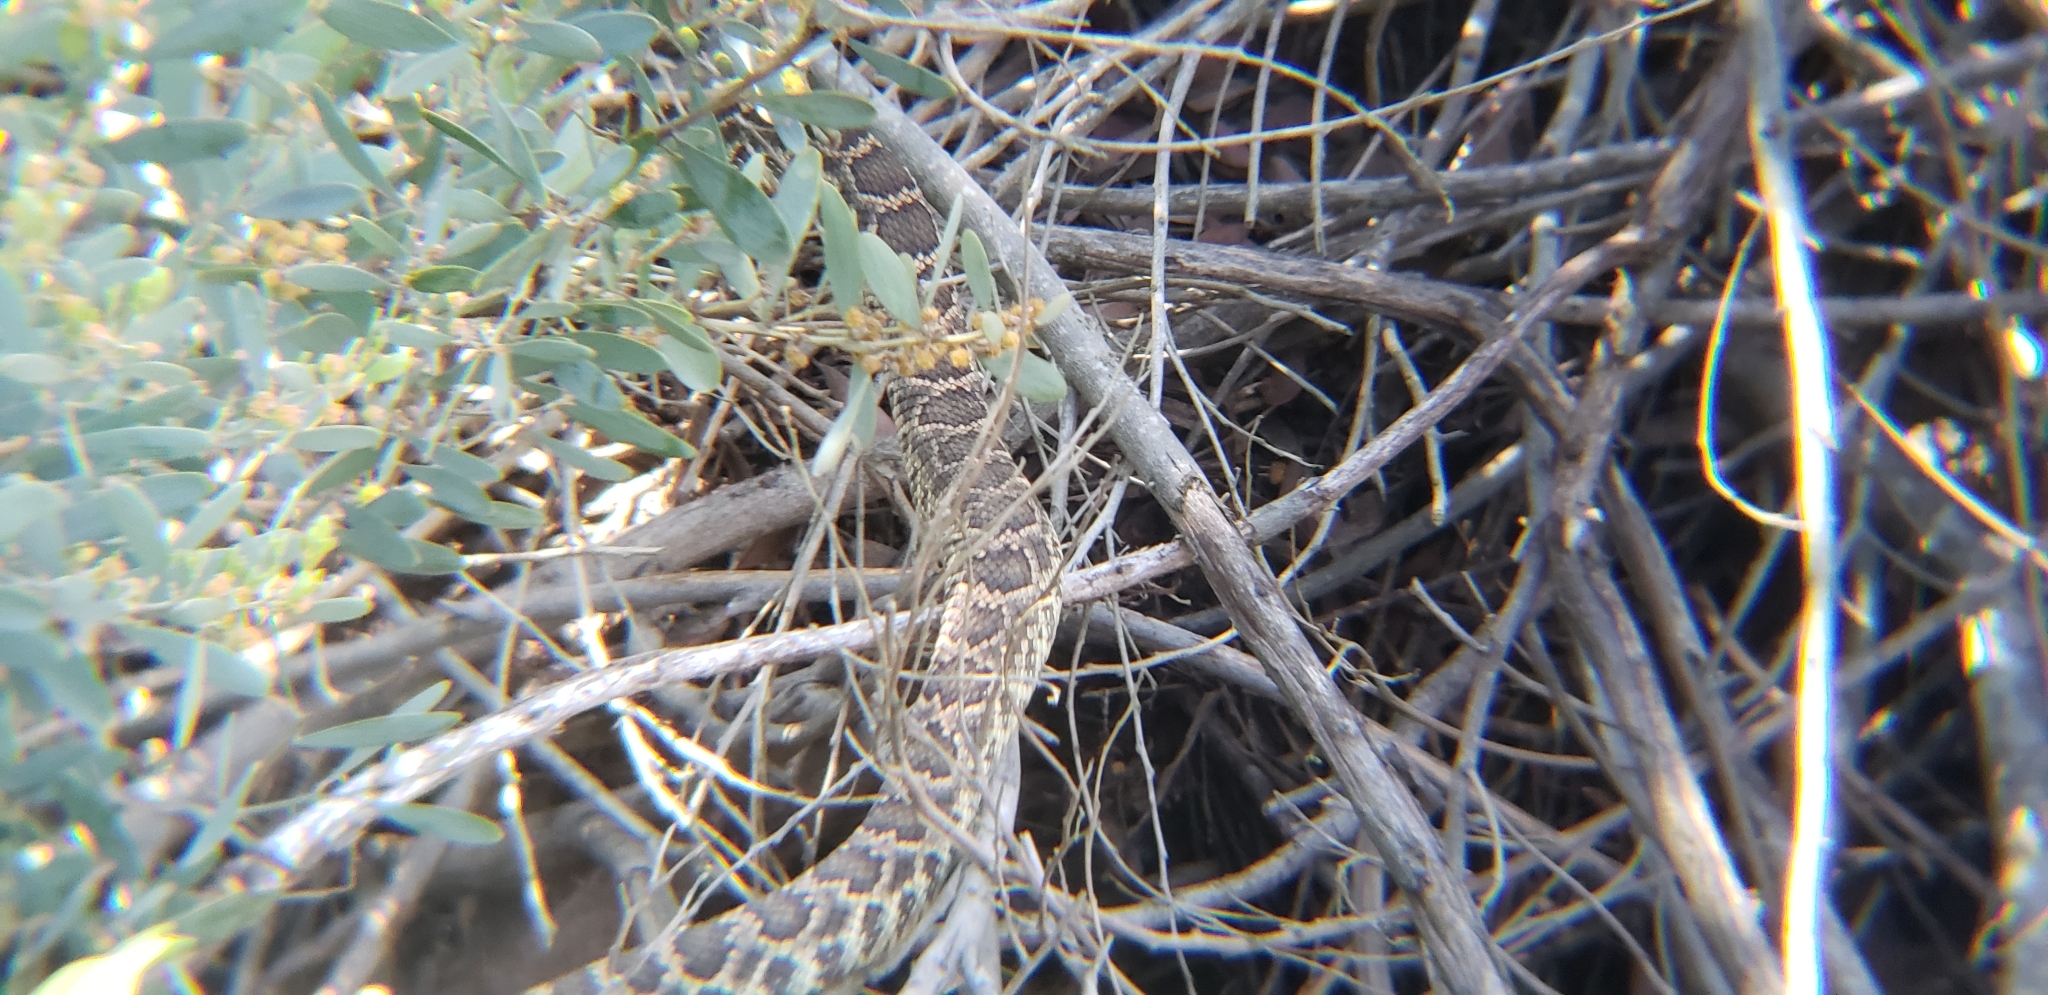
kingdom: Animalia
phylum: Chordata
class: Squamata
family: Viperidae
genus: Crotalus
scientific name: Crotalus oreganus
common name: Abyssus
